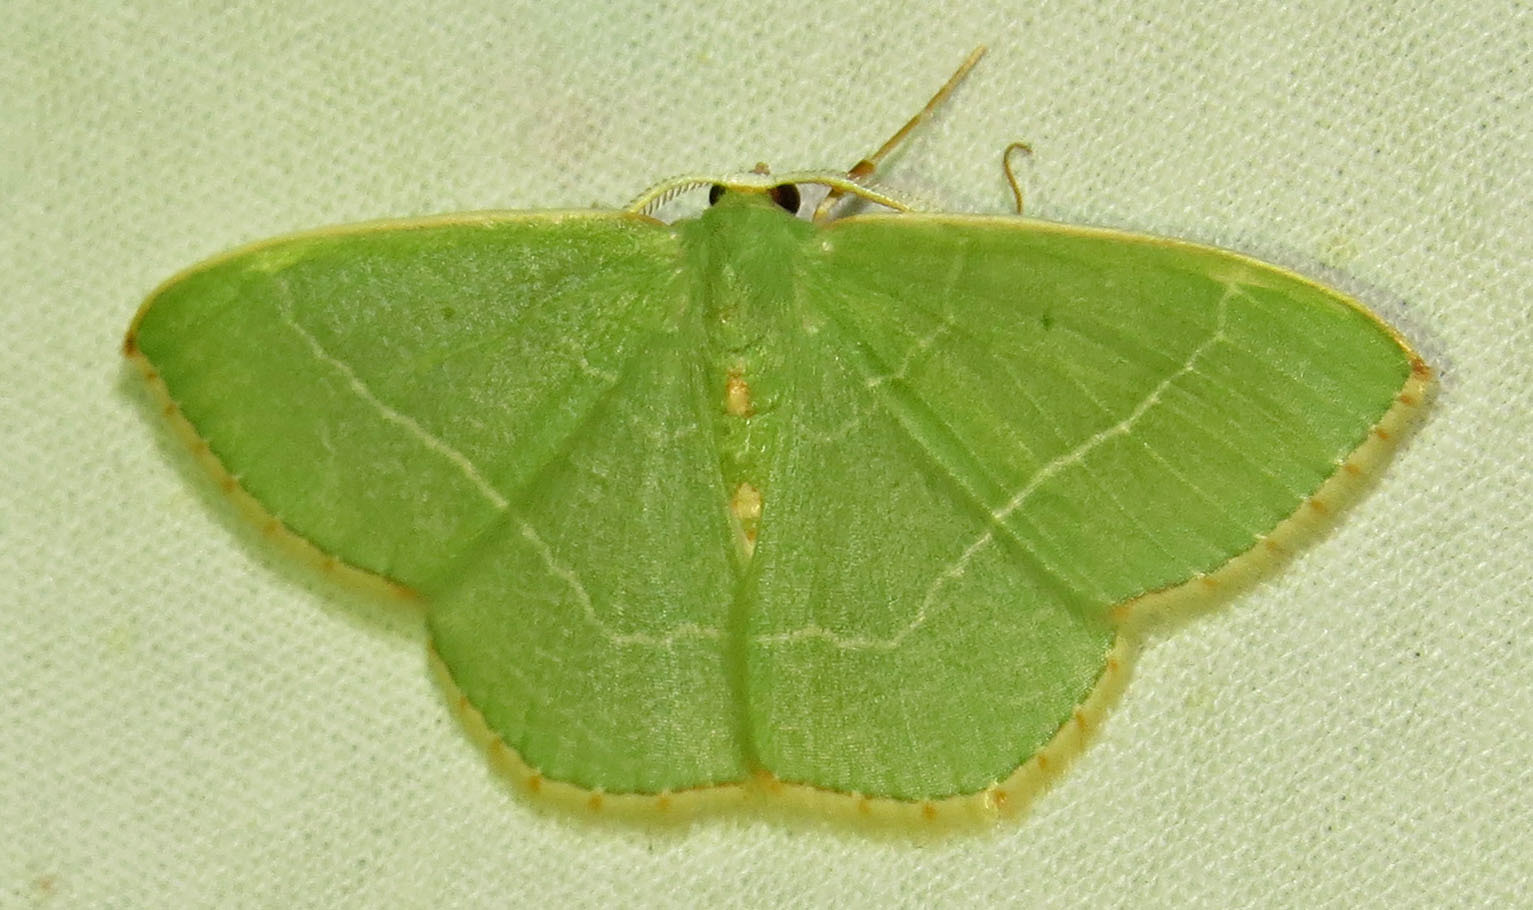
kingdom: Animalia
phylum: Arthropoda
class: Insecta
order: Lepidoptera
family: Geometridae
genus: Nemoria
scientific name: Nemoria bistriaria
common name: Red-fringed emerald
